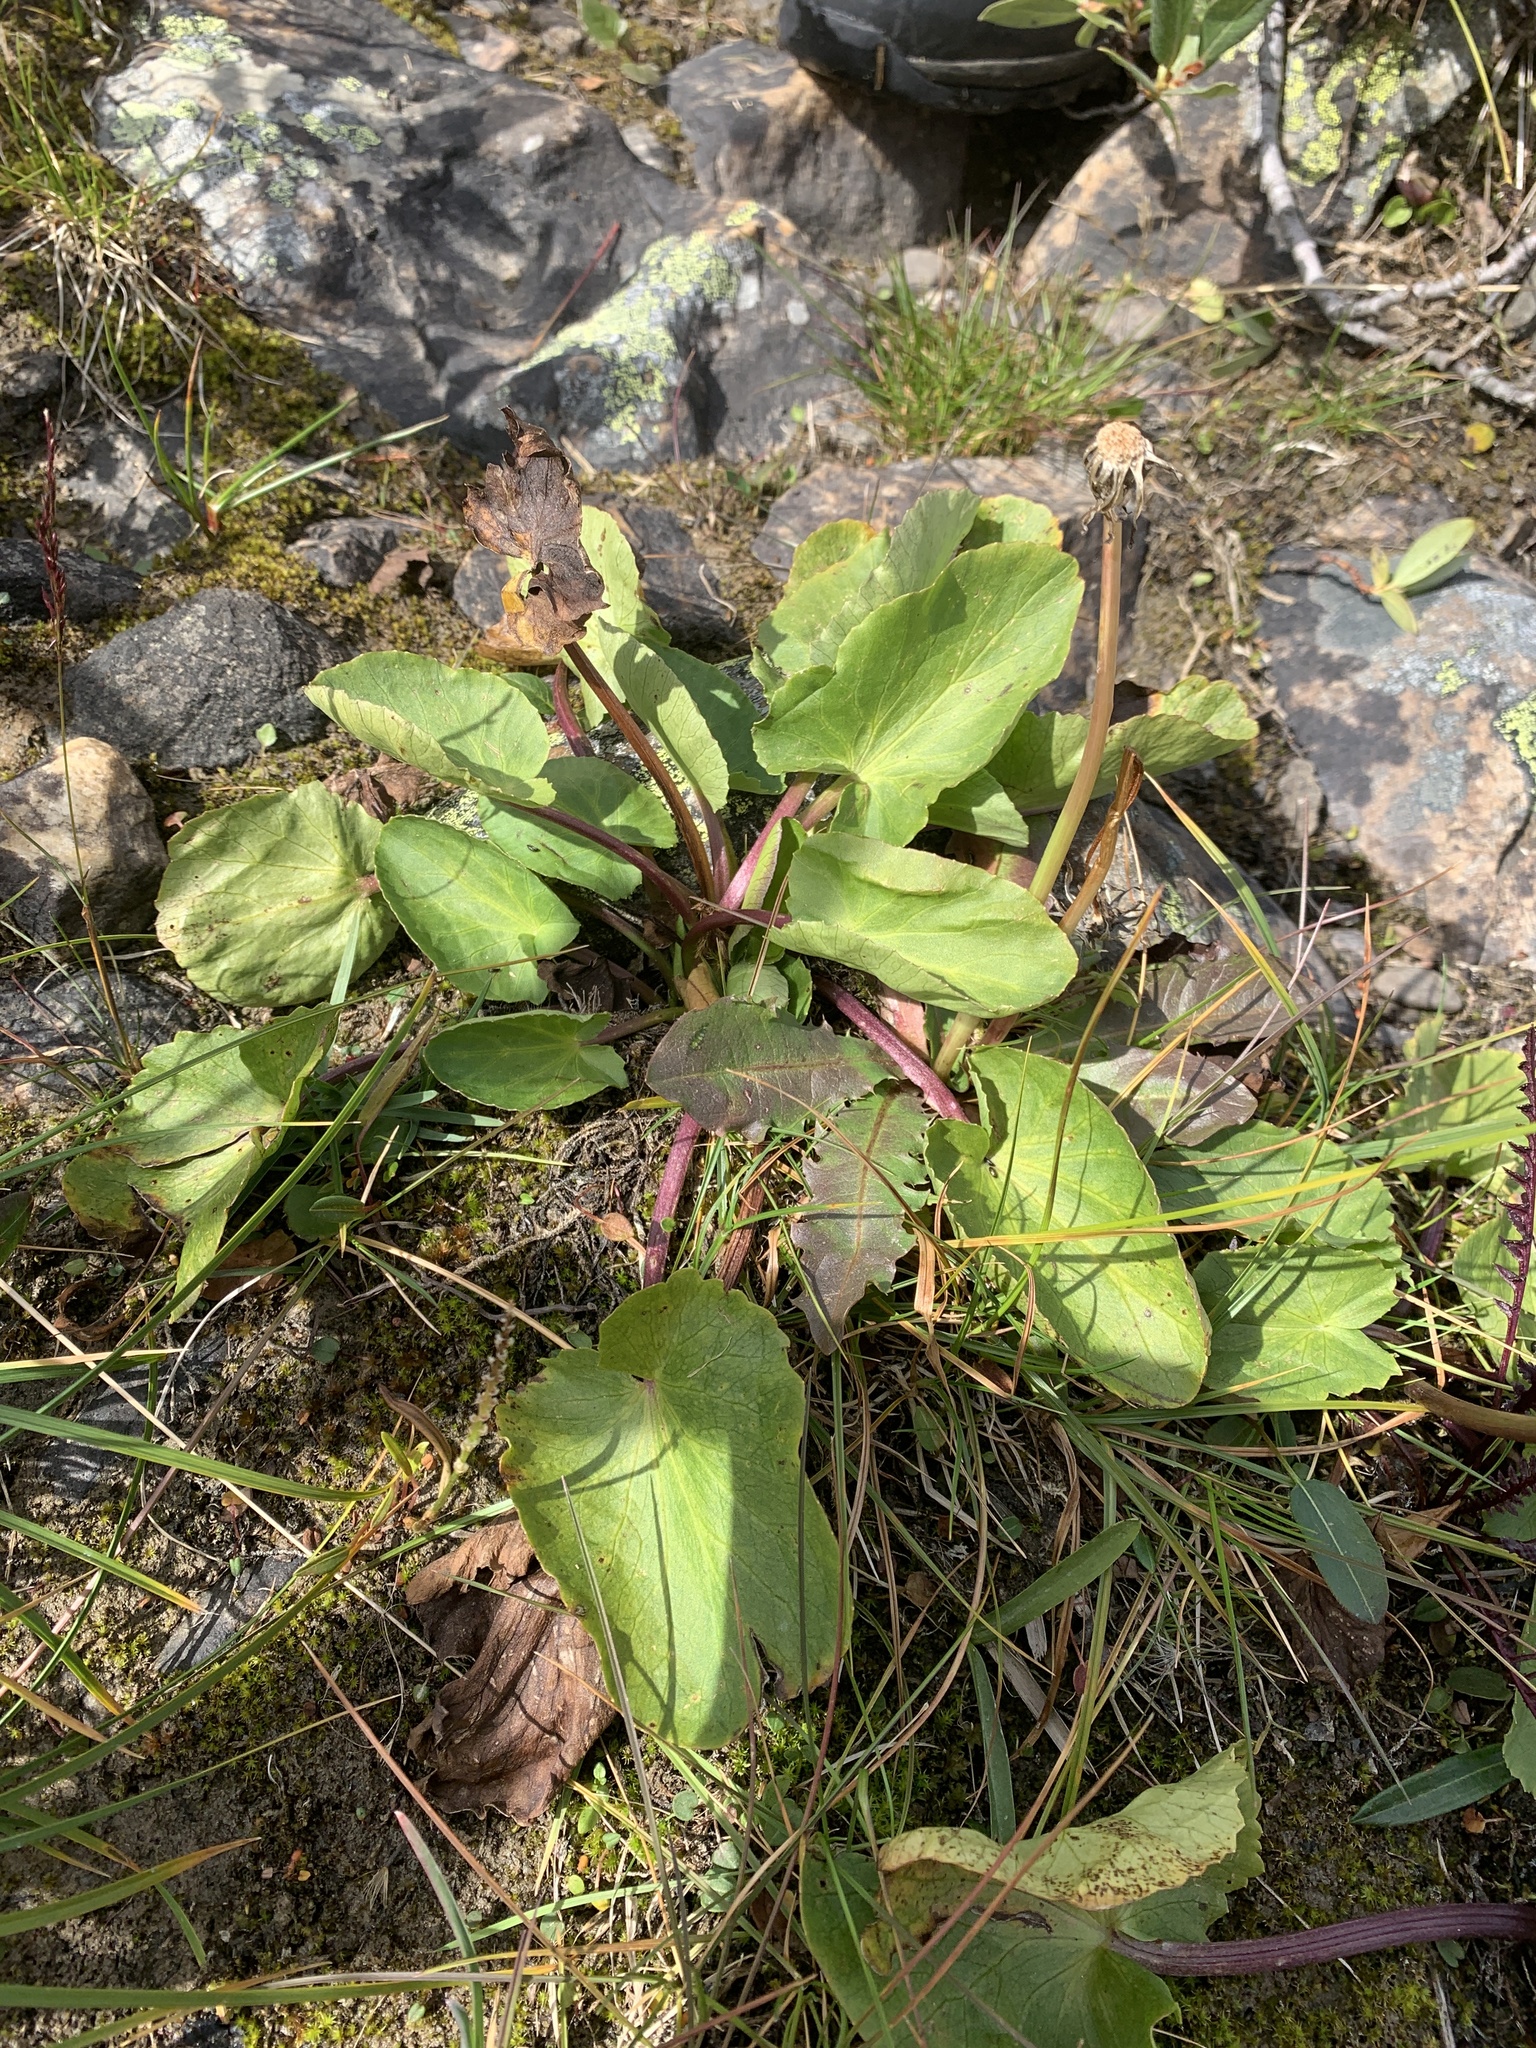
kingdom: Plantae
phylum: Tracheophyta
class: Magnoliopsida
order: Ranunculales
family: Ranunculaceae
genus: Caltha
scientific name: Caltha leptosepala
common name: Elkslip
